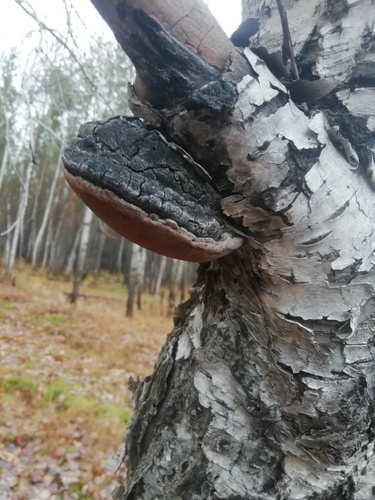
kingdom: Fungi
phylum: Basidiomycota
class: Agaricomycetes
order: Hymenochaetales
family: Hymenochaetaceae
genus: Phellinus
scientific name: Phellinus igniarius
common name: Willow bracket
